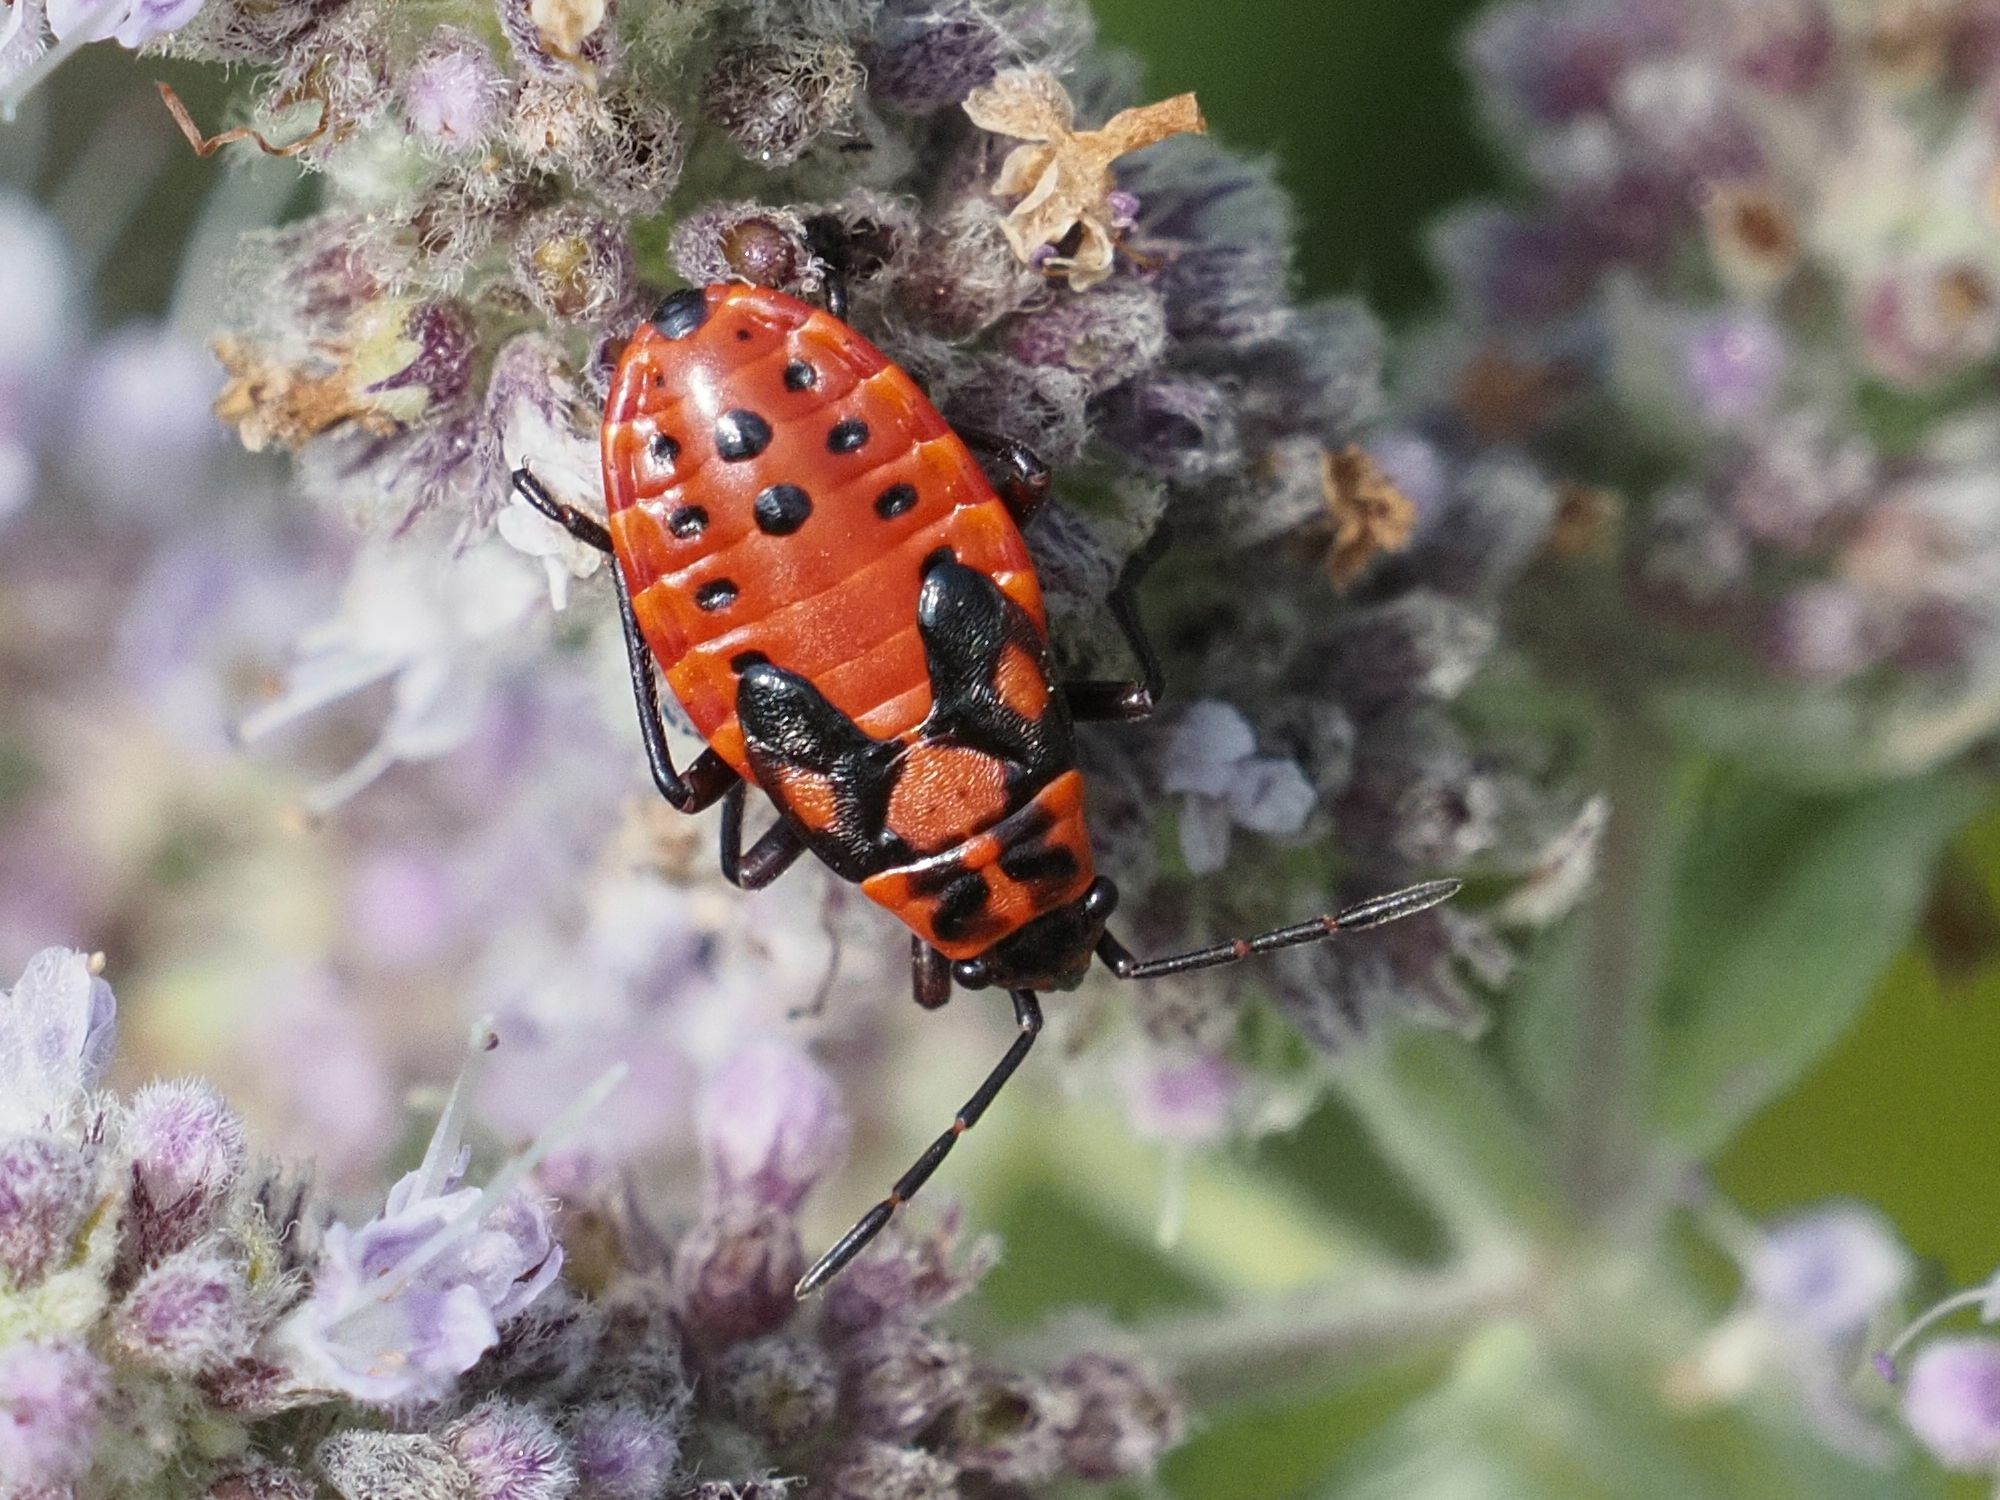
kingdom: Animalia
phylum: Arthropoda
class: Insecta
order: Hemiptera
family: Lygaeidae
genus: Spilostethus
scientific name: Spilostethus saxatilis
